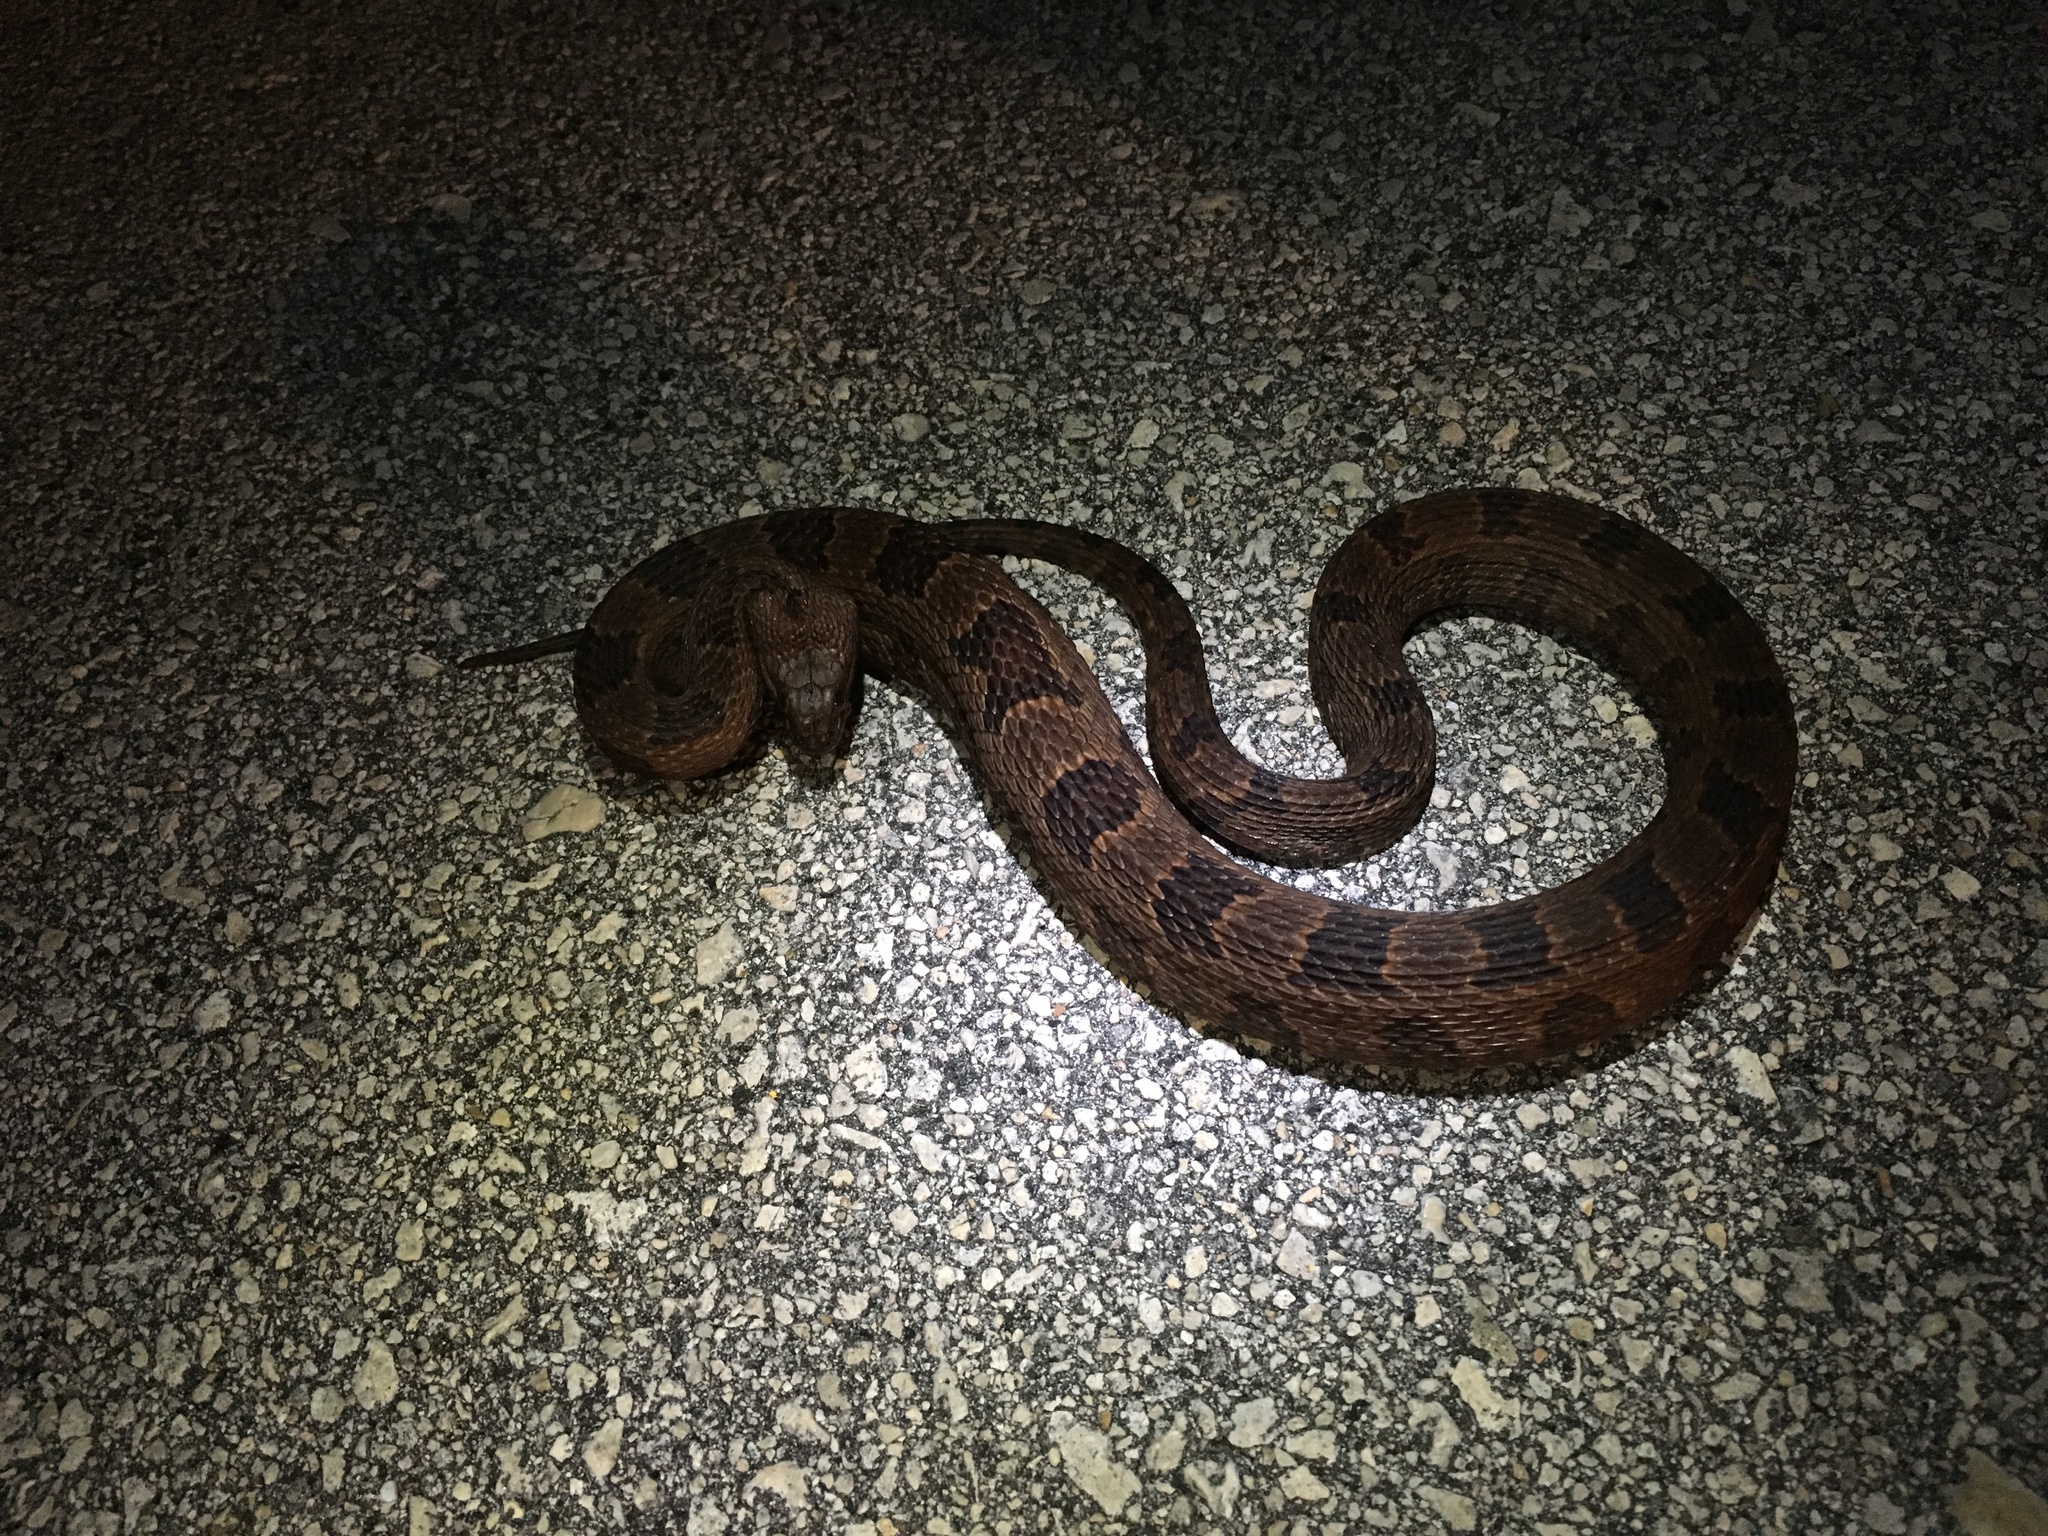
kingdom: Animalia
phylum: Chordata
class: Squamata
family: Colubridae
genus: Nerodia
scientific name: Nerodia taxispilota
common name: Brown water snake
